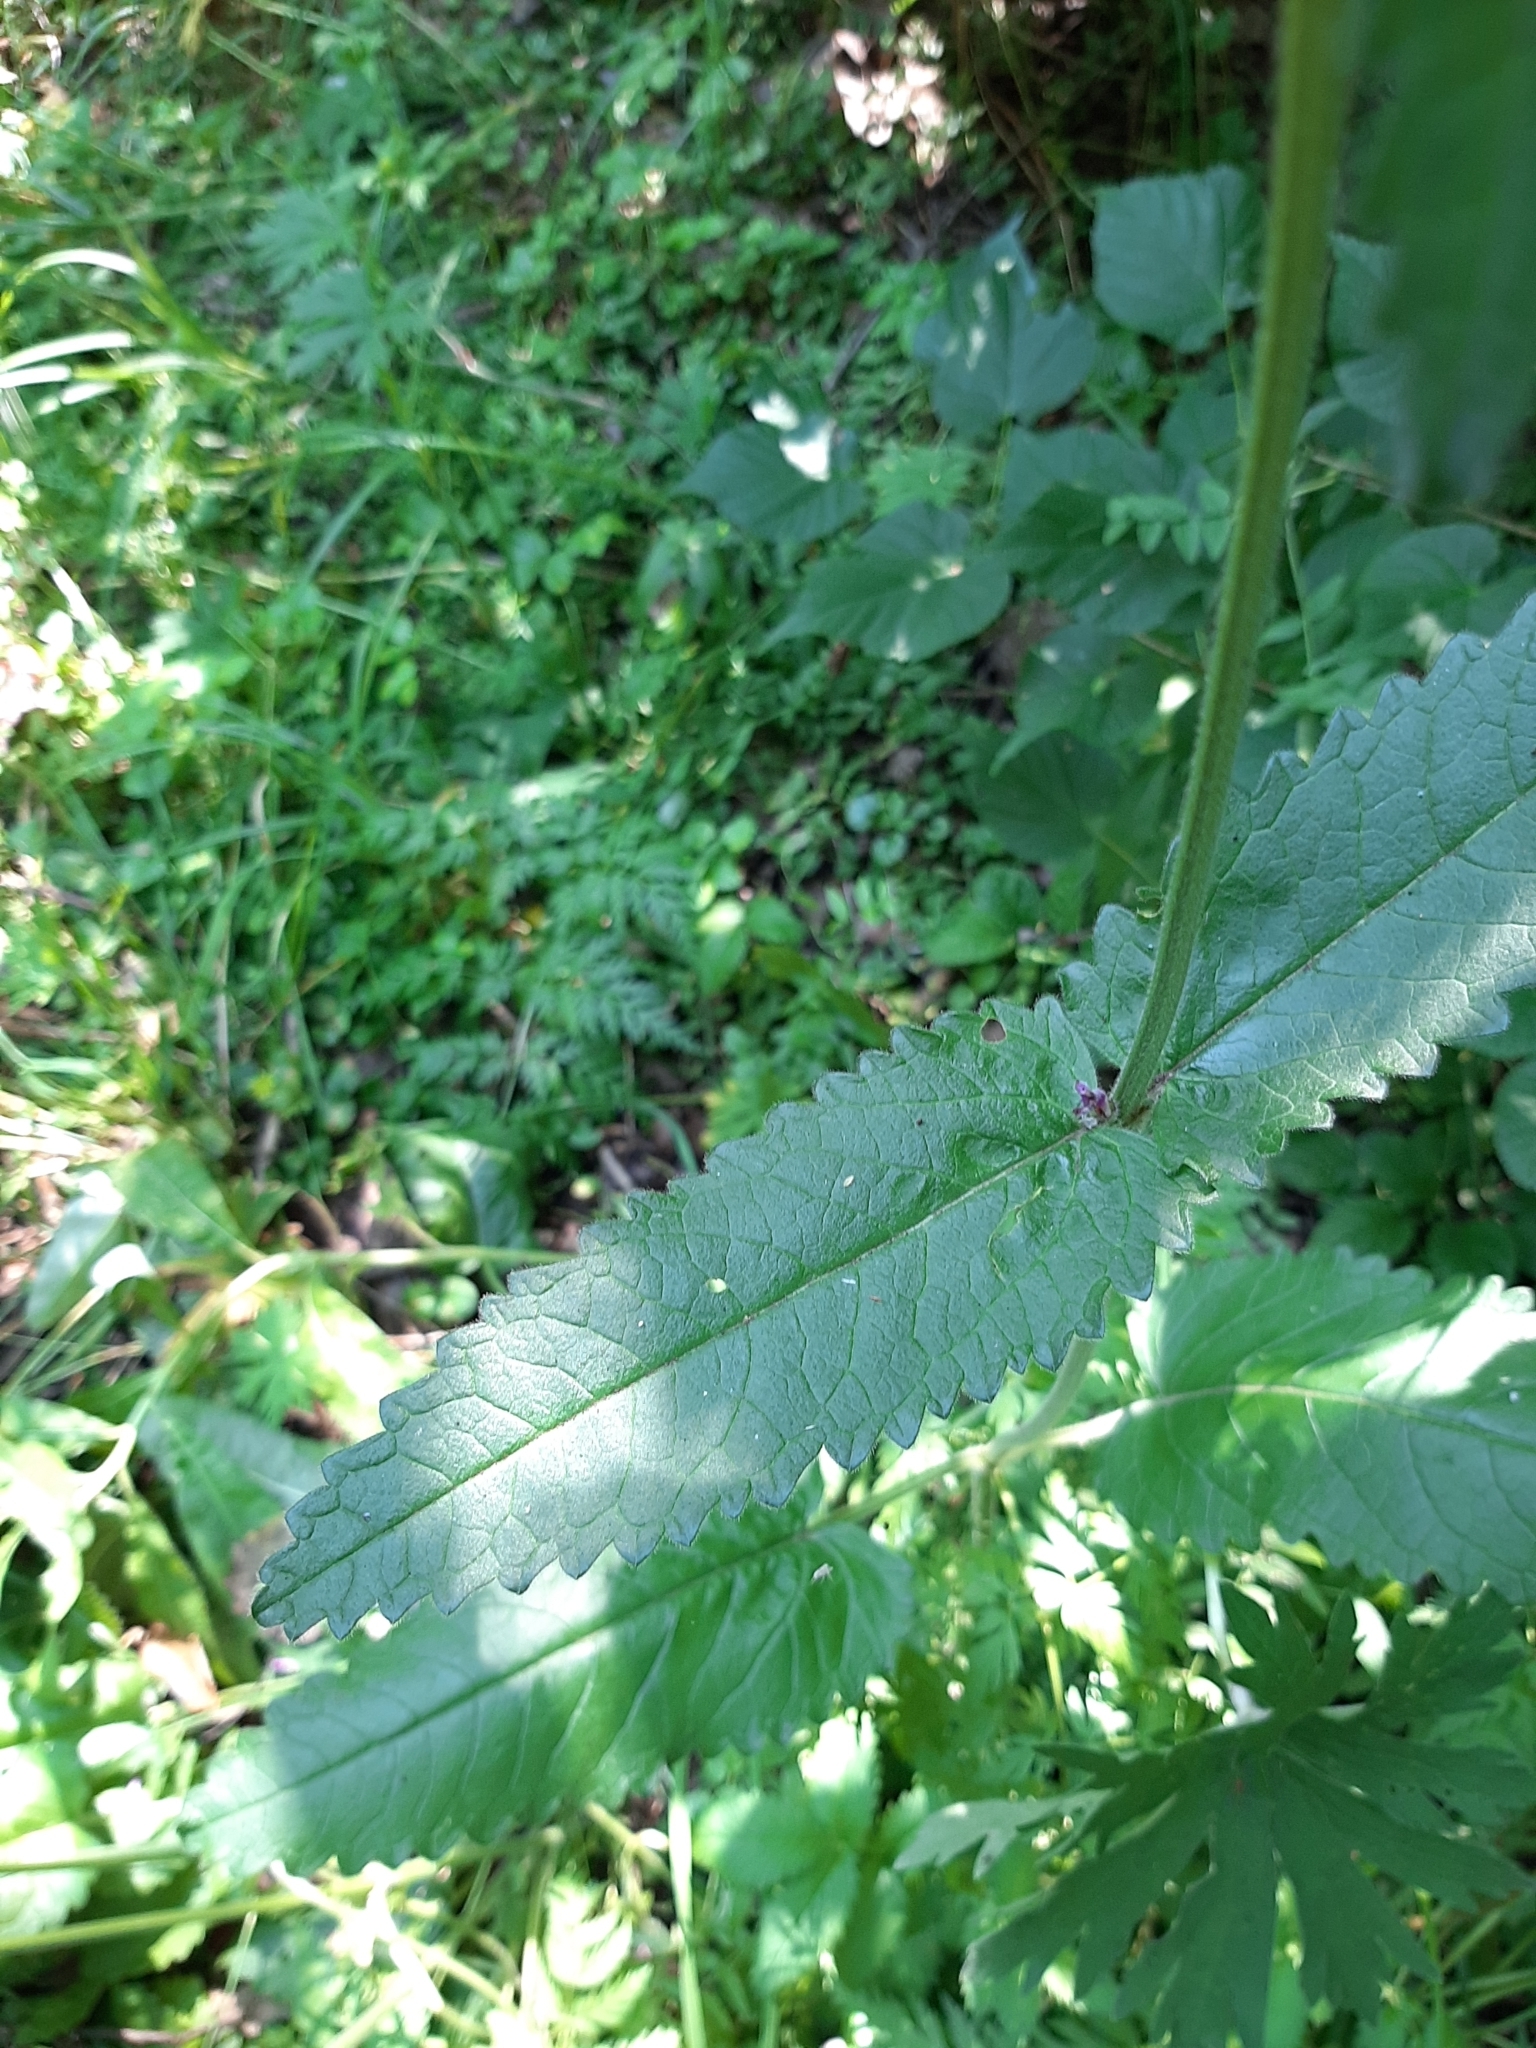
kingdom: Plantae
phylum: Tracheophyta
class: Magnoliopsida
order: Lamiales
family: Lamiaceae
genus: Betonica
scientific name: Betonica officinalis
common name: Bishop's-wort
